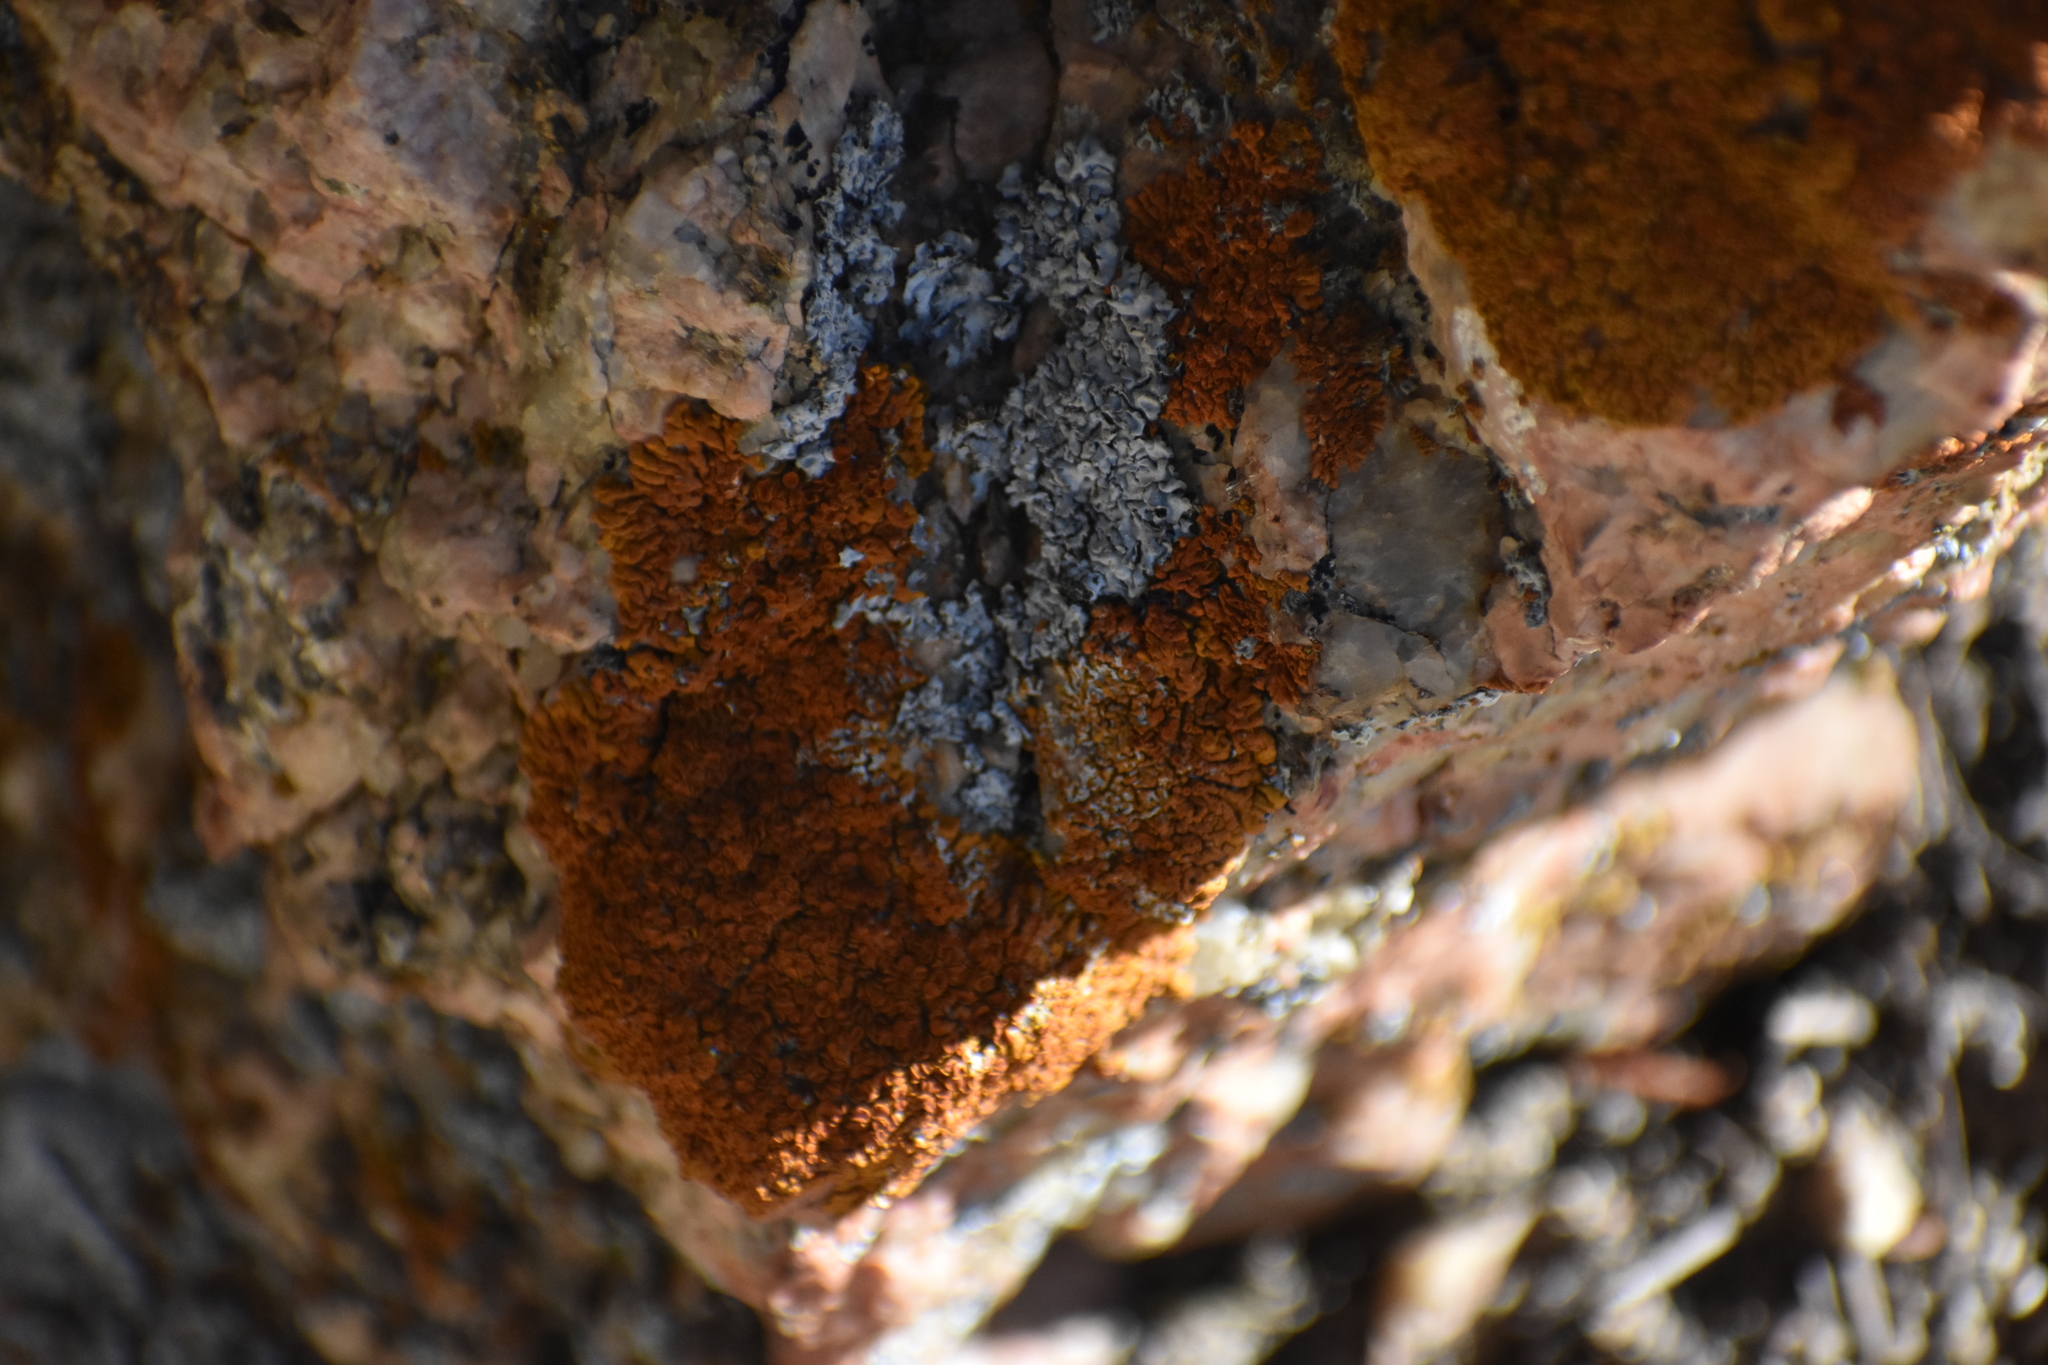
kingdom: Fungi
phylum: Ascomycota
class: Lecanoromycetes
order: Teloschistales
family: Teloschistaceae
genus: Xanthoria
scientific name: Xanthoria elegans
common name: Elegant sunburst lichen
